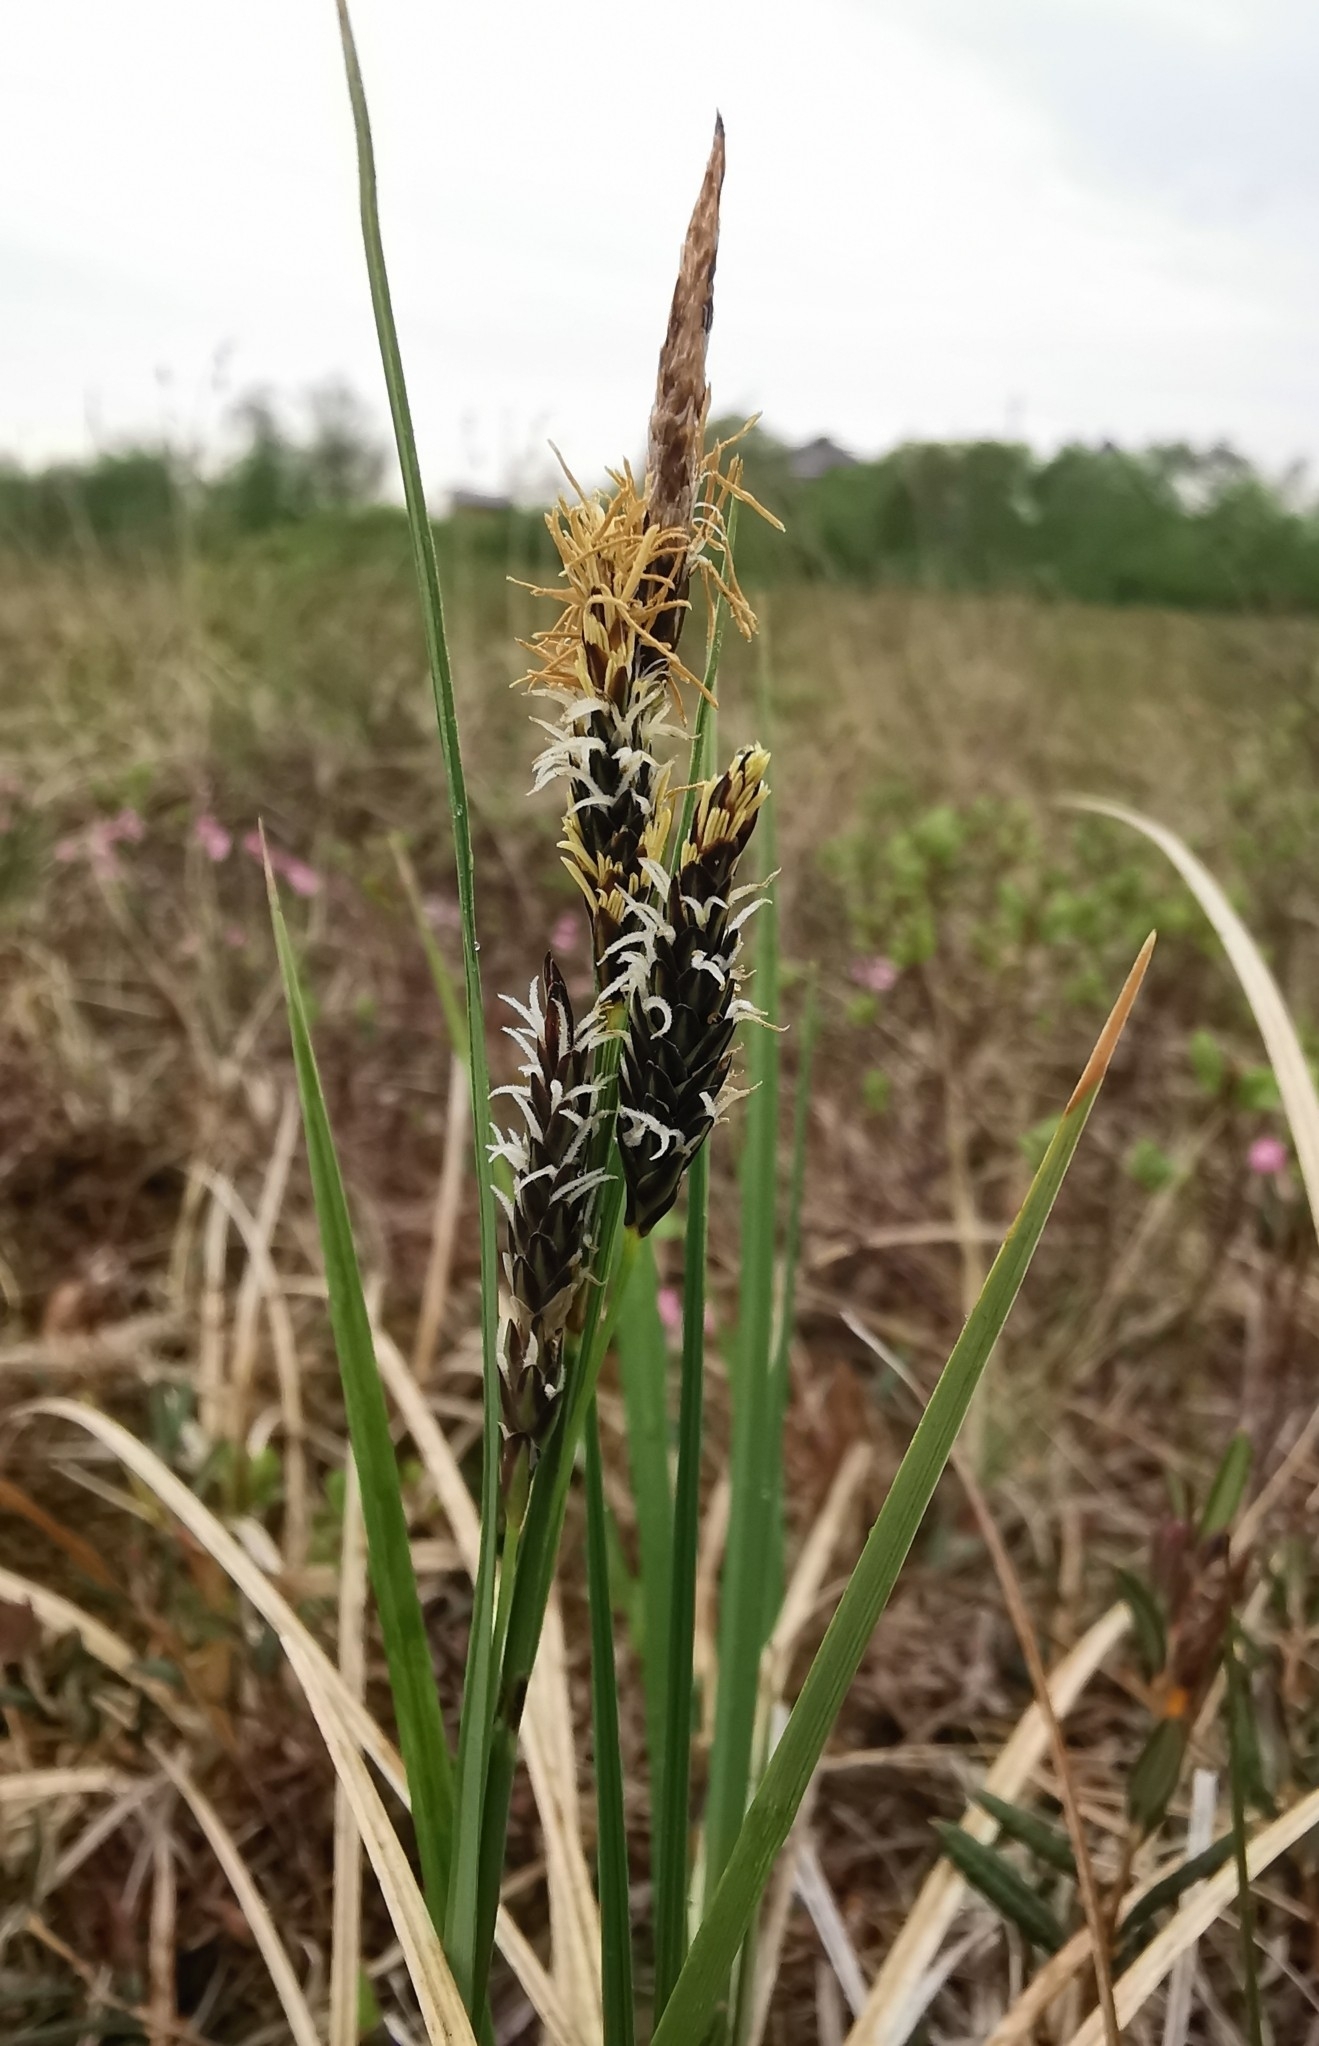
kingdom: Plantae
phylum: Tracheophyta
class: Liliopsida
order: Poales
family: Cyperaceae
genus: Carex
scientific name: Carex scita
